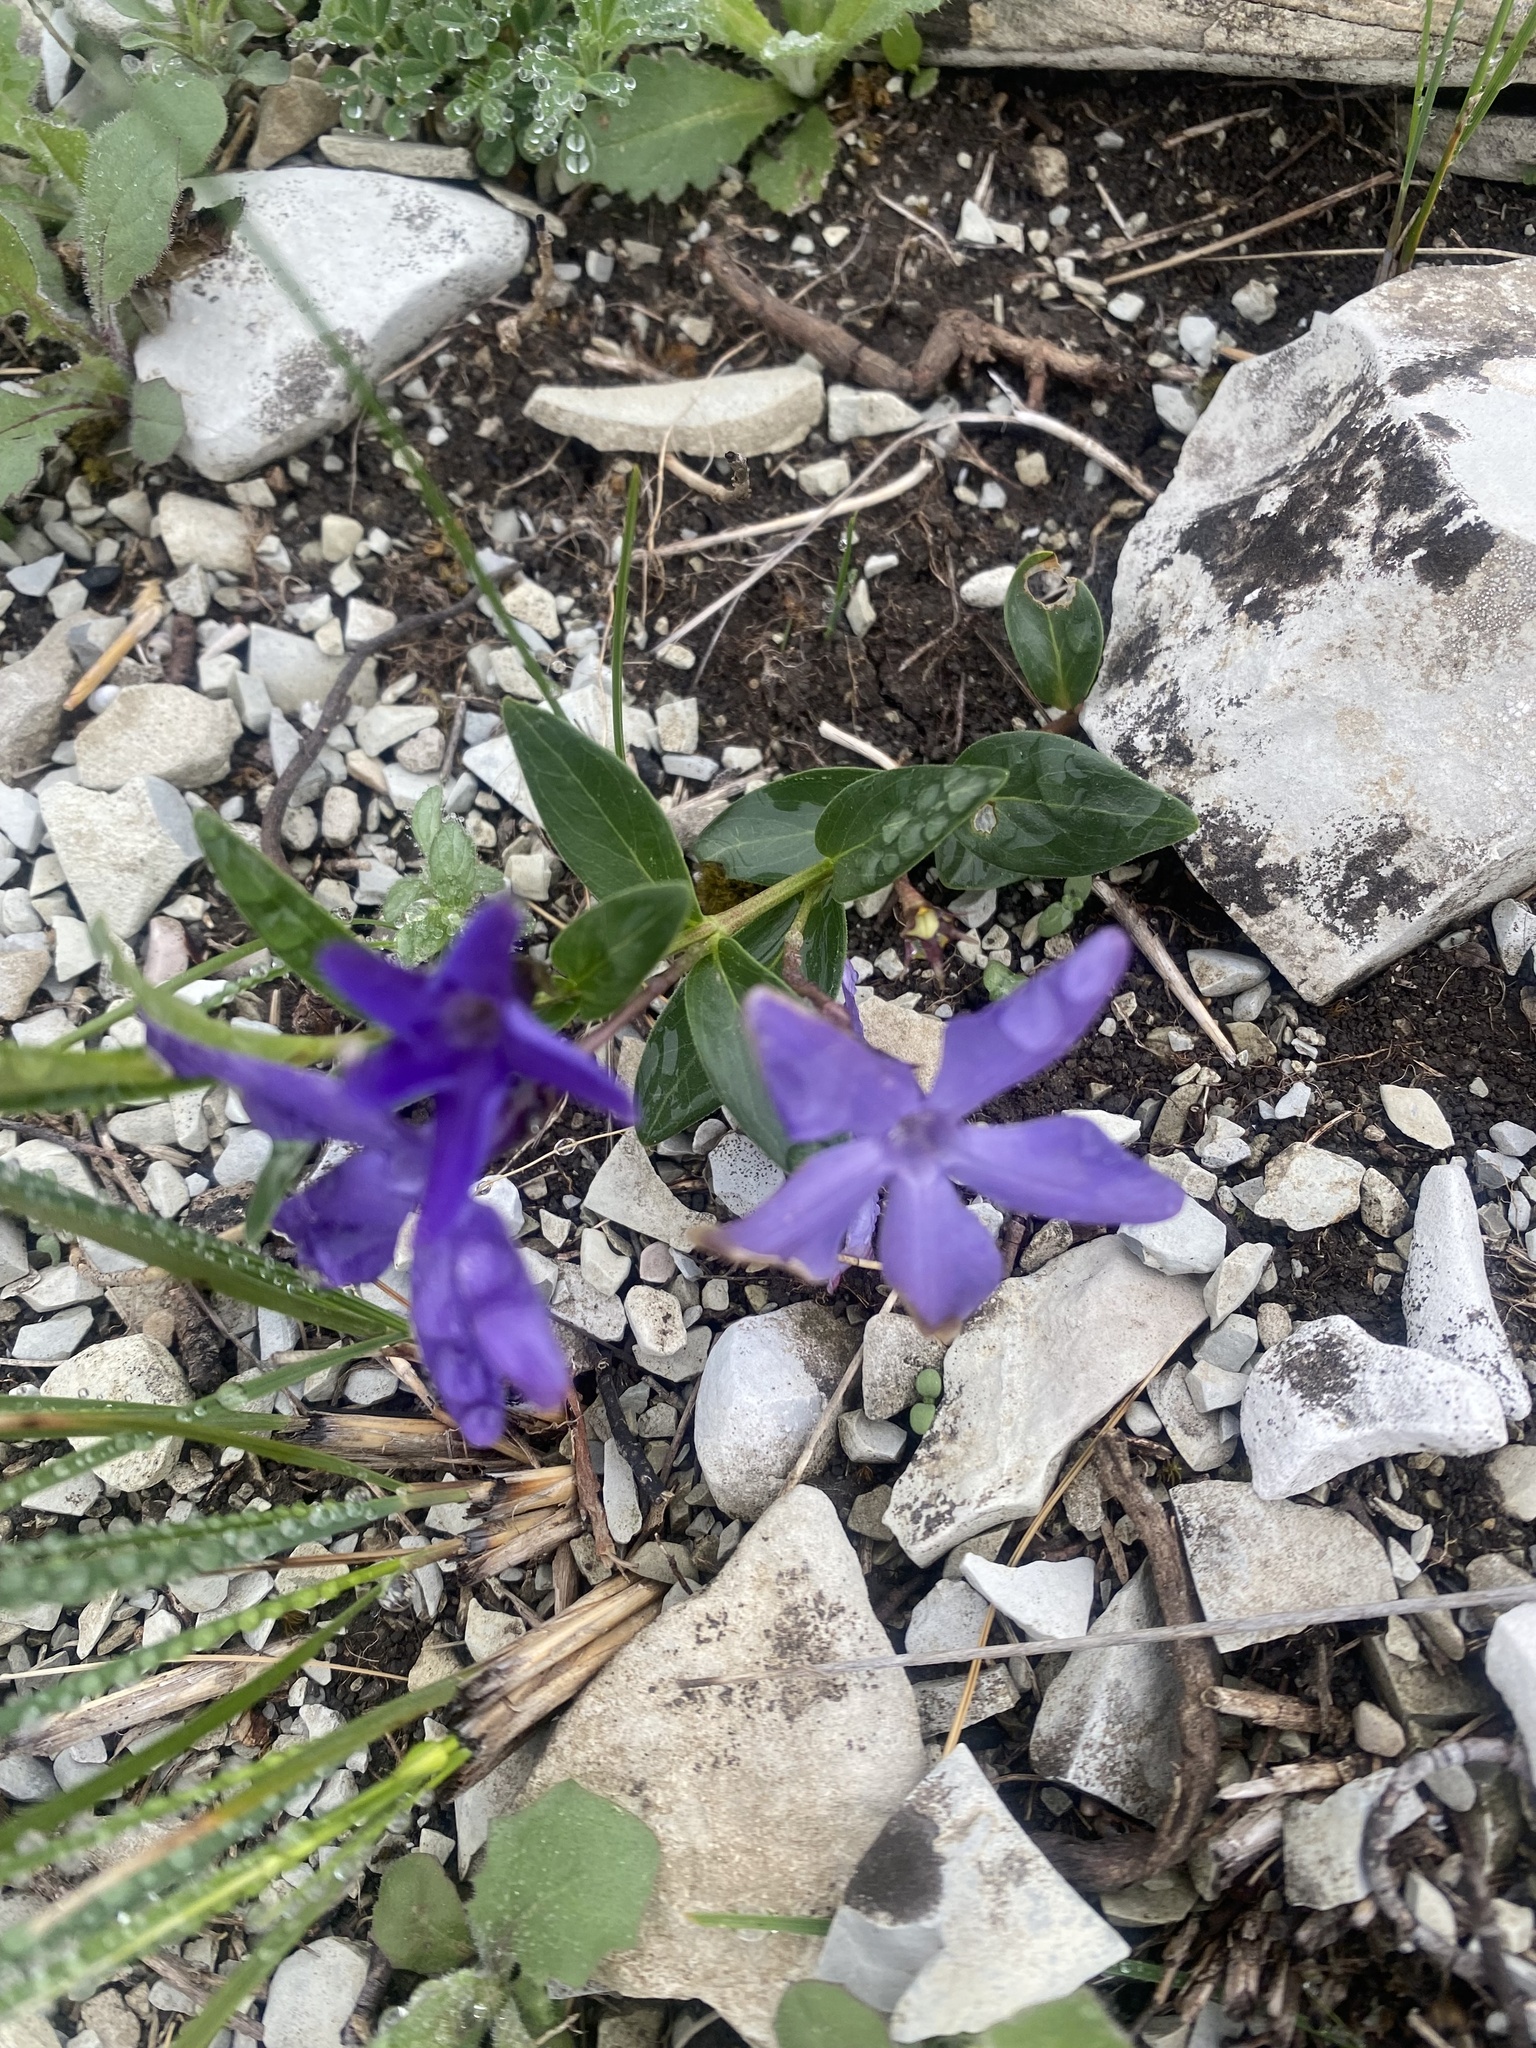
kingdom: Plantae
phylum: Tracheophyta
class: Magnoliopsida
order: Gentianales
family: Apocynaceae
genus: Vinca
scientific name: Vinca herbacea
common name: Herbaceous periwinkle
